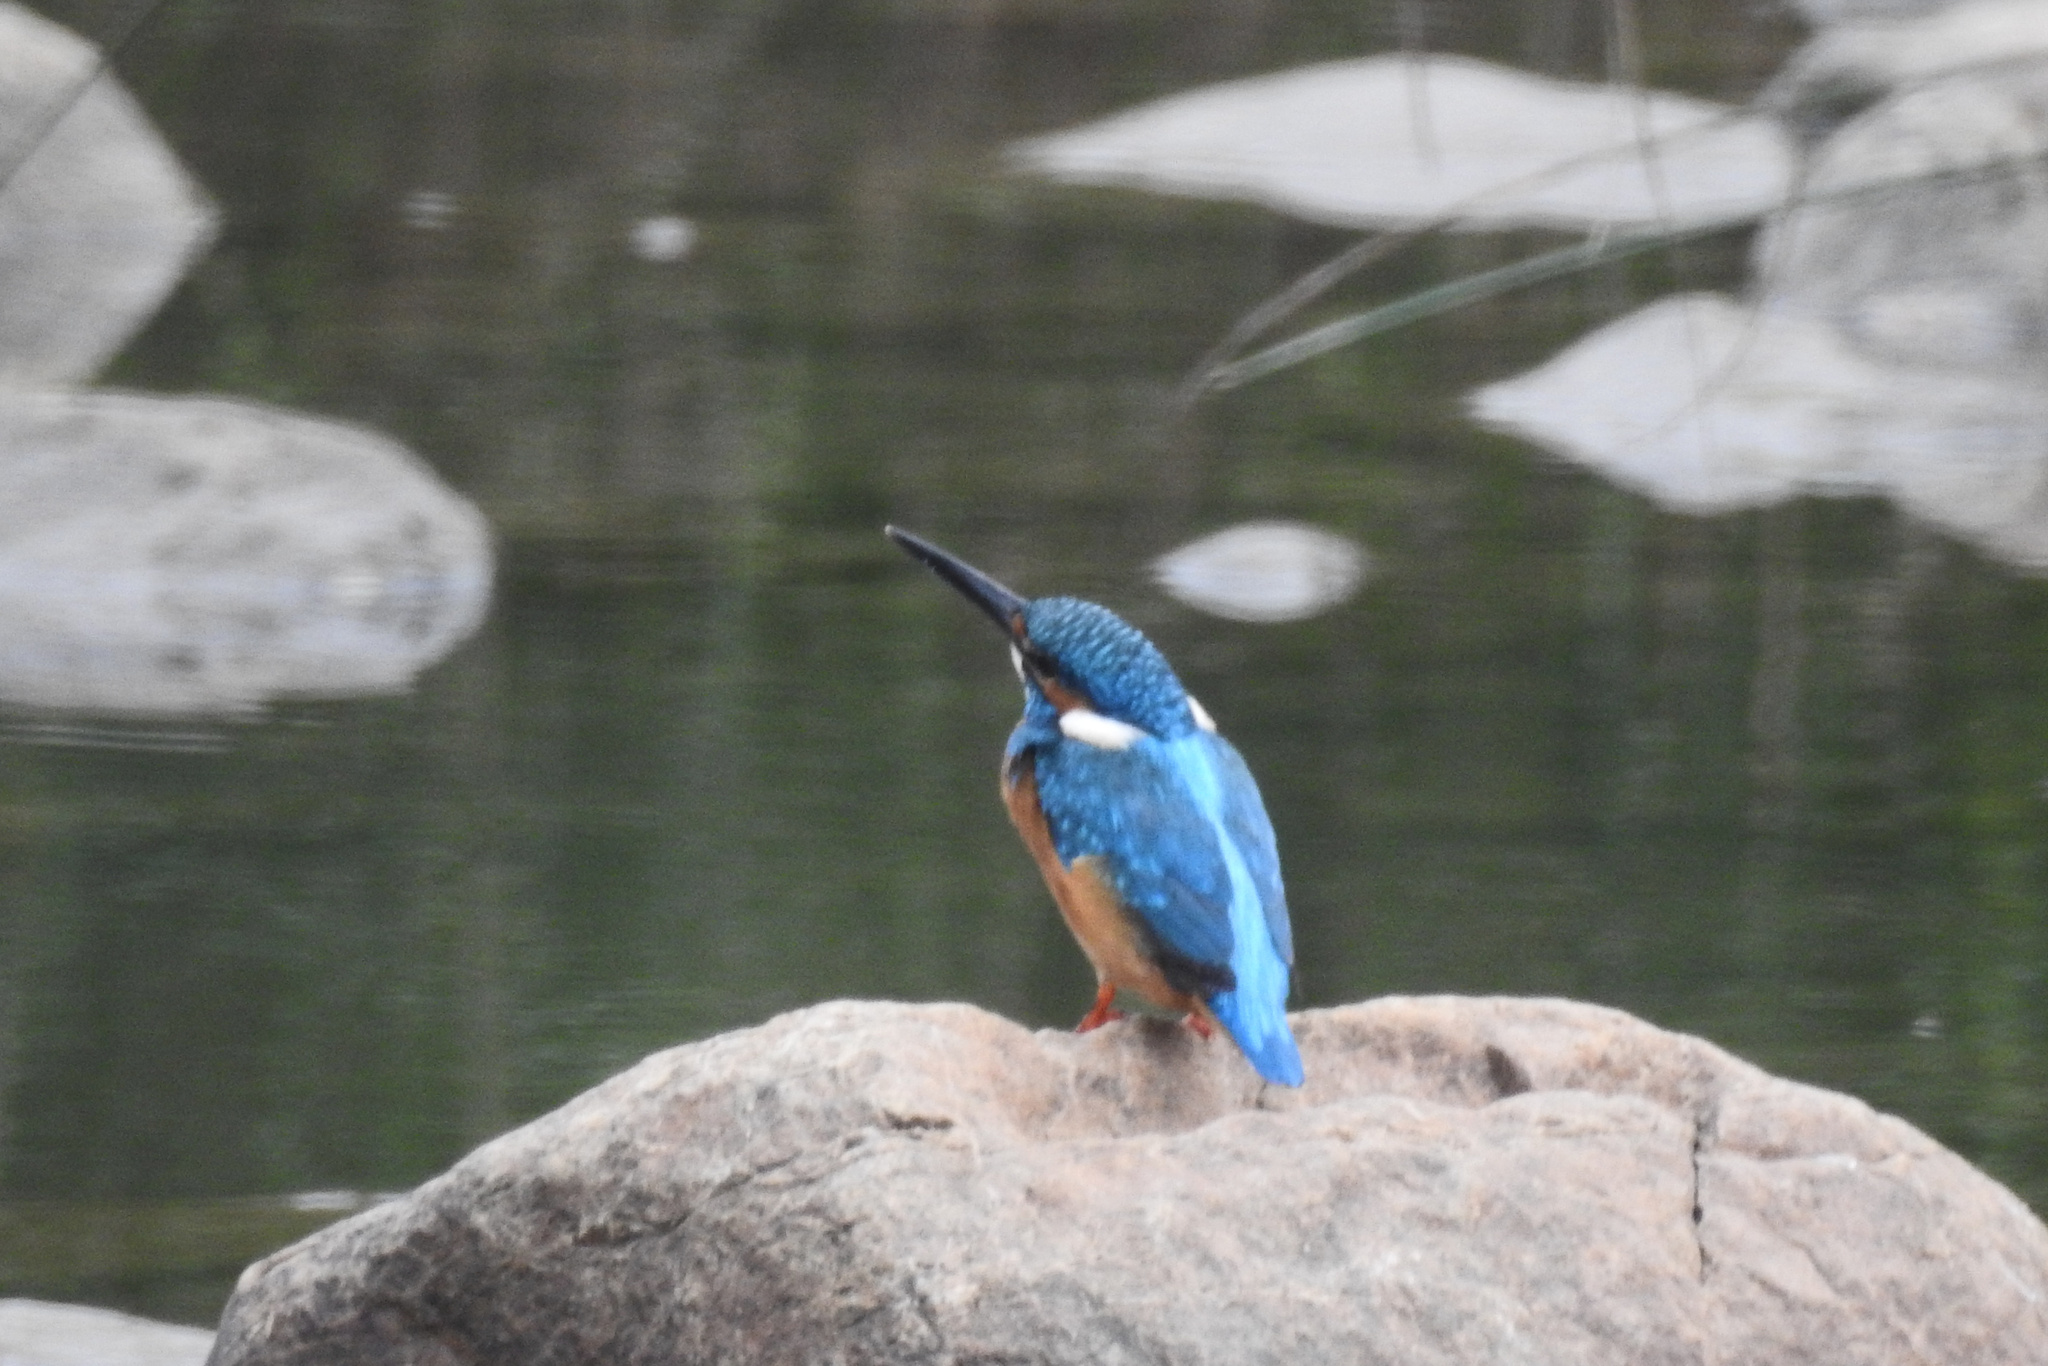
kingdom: Animalia
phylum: Chordata
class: Aves
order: Coraciiformes
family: Alcedinidae
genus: Alcedo
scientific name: Alcedo atthis
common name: Common kingfisher
